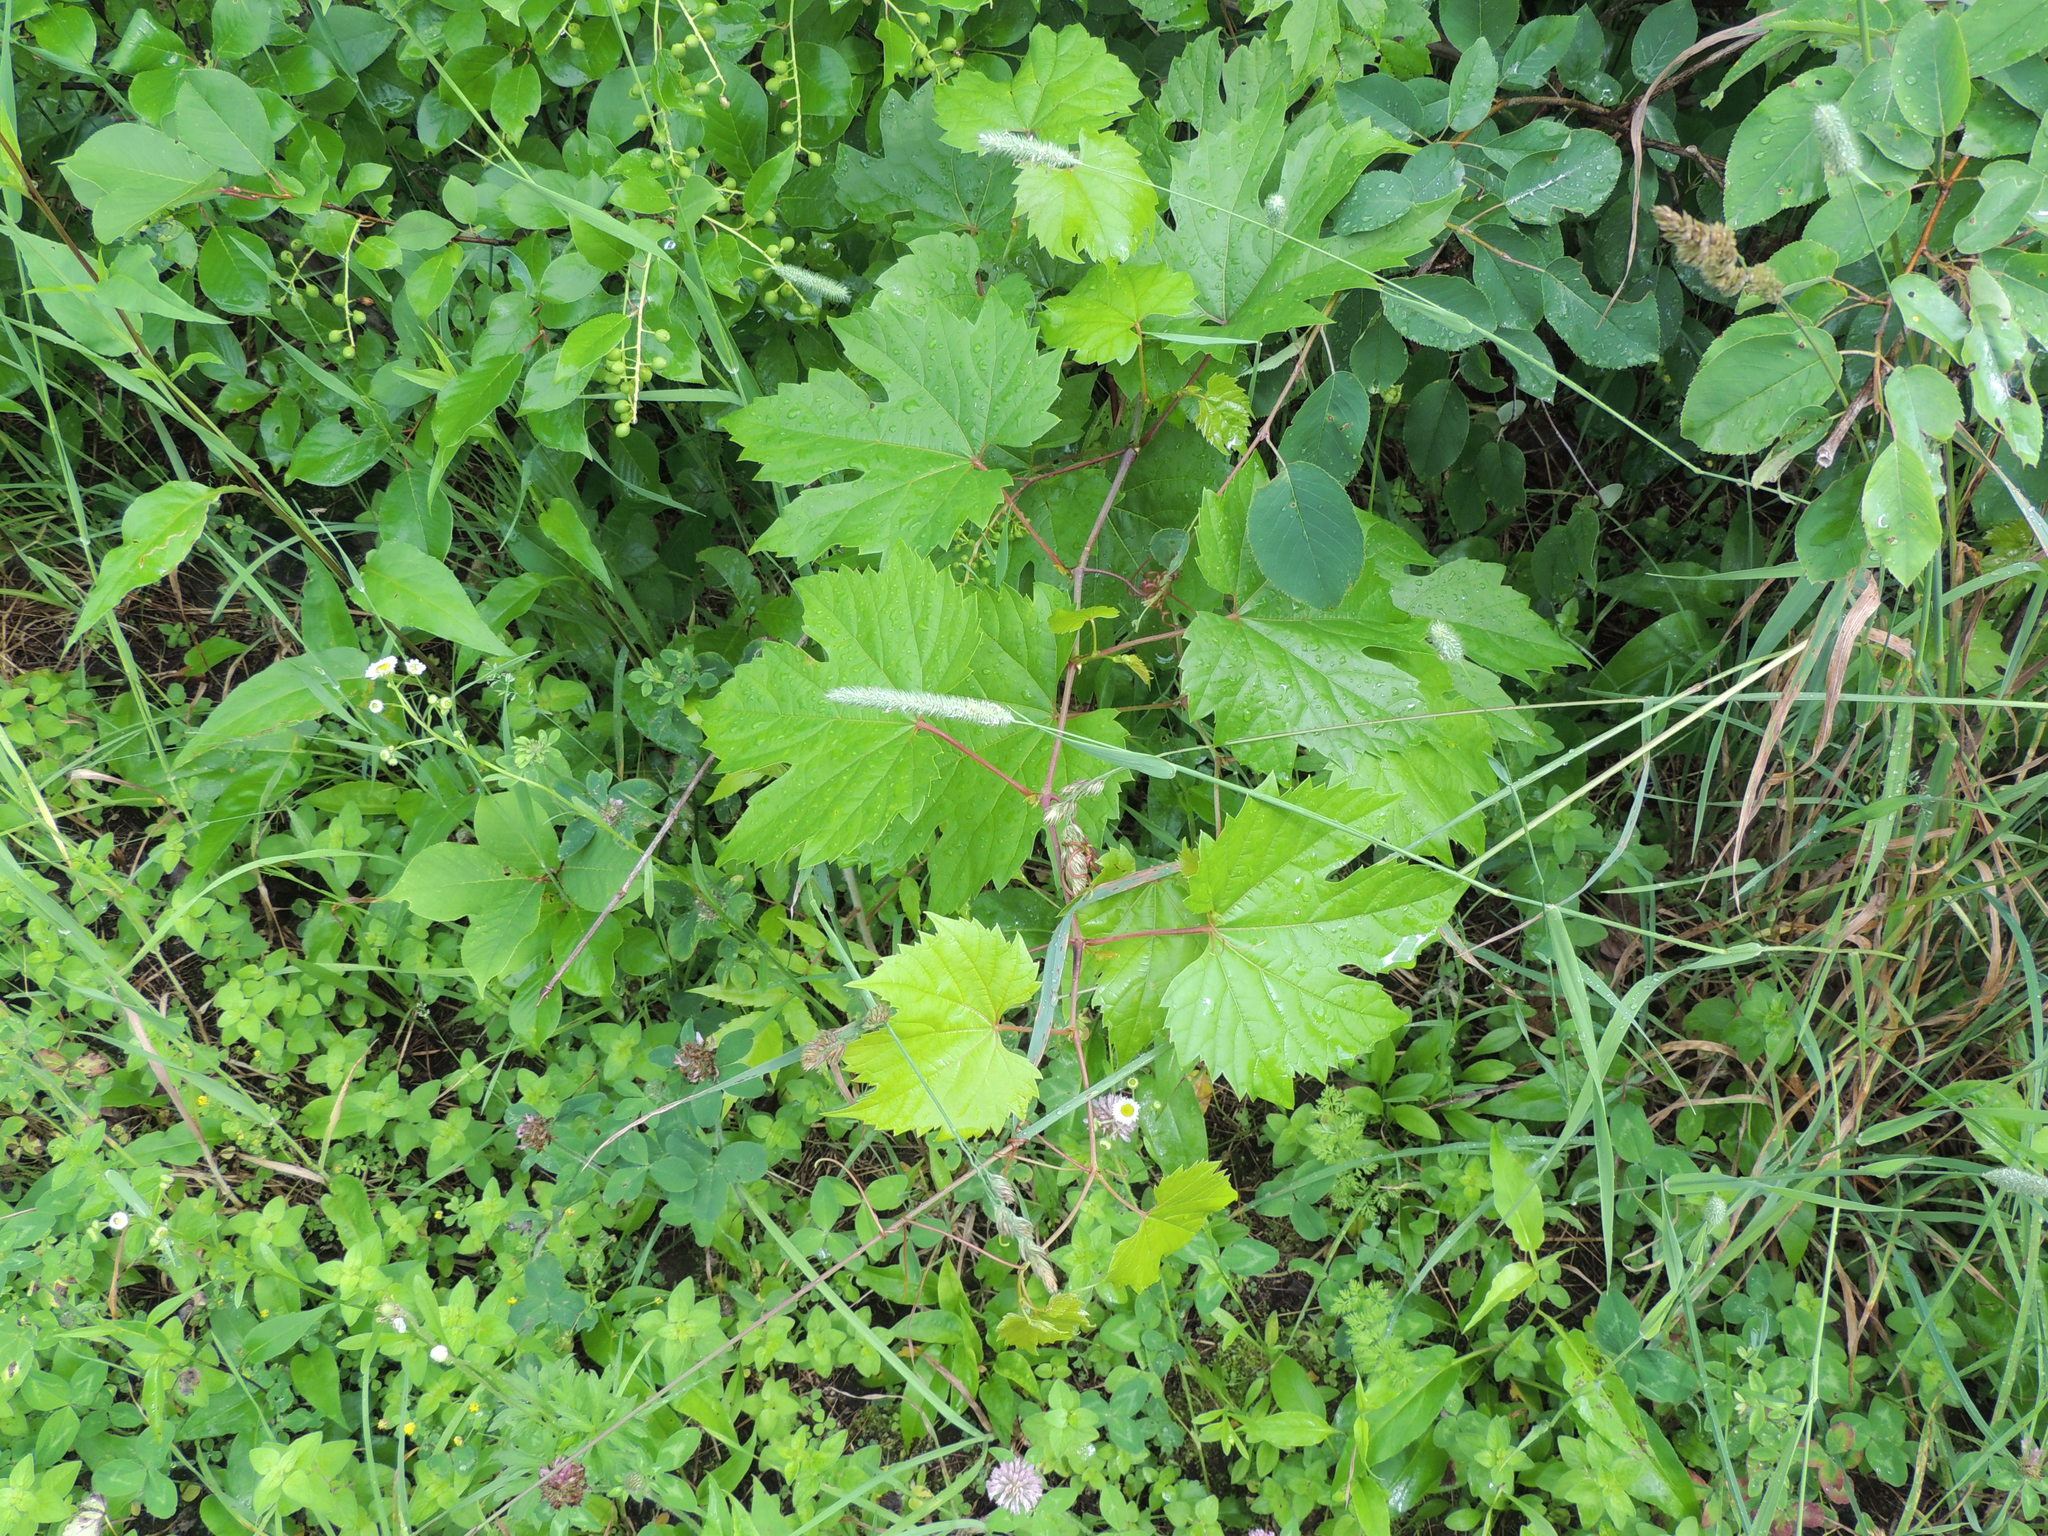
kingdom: Plantae
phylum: Tracheophyta
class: Magnoliopsida
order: Vitales
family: Vitaceae
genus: Vitis
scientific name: Vitis riparia
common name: Frost grape
